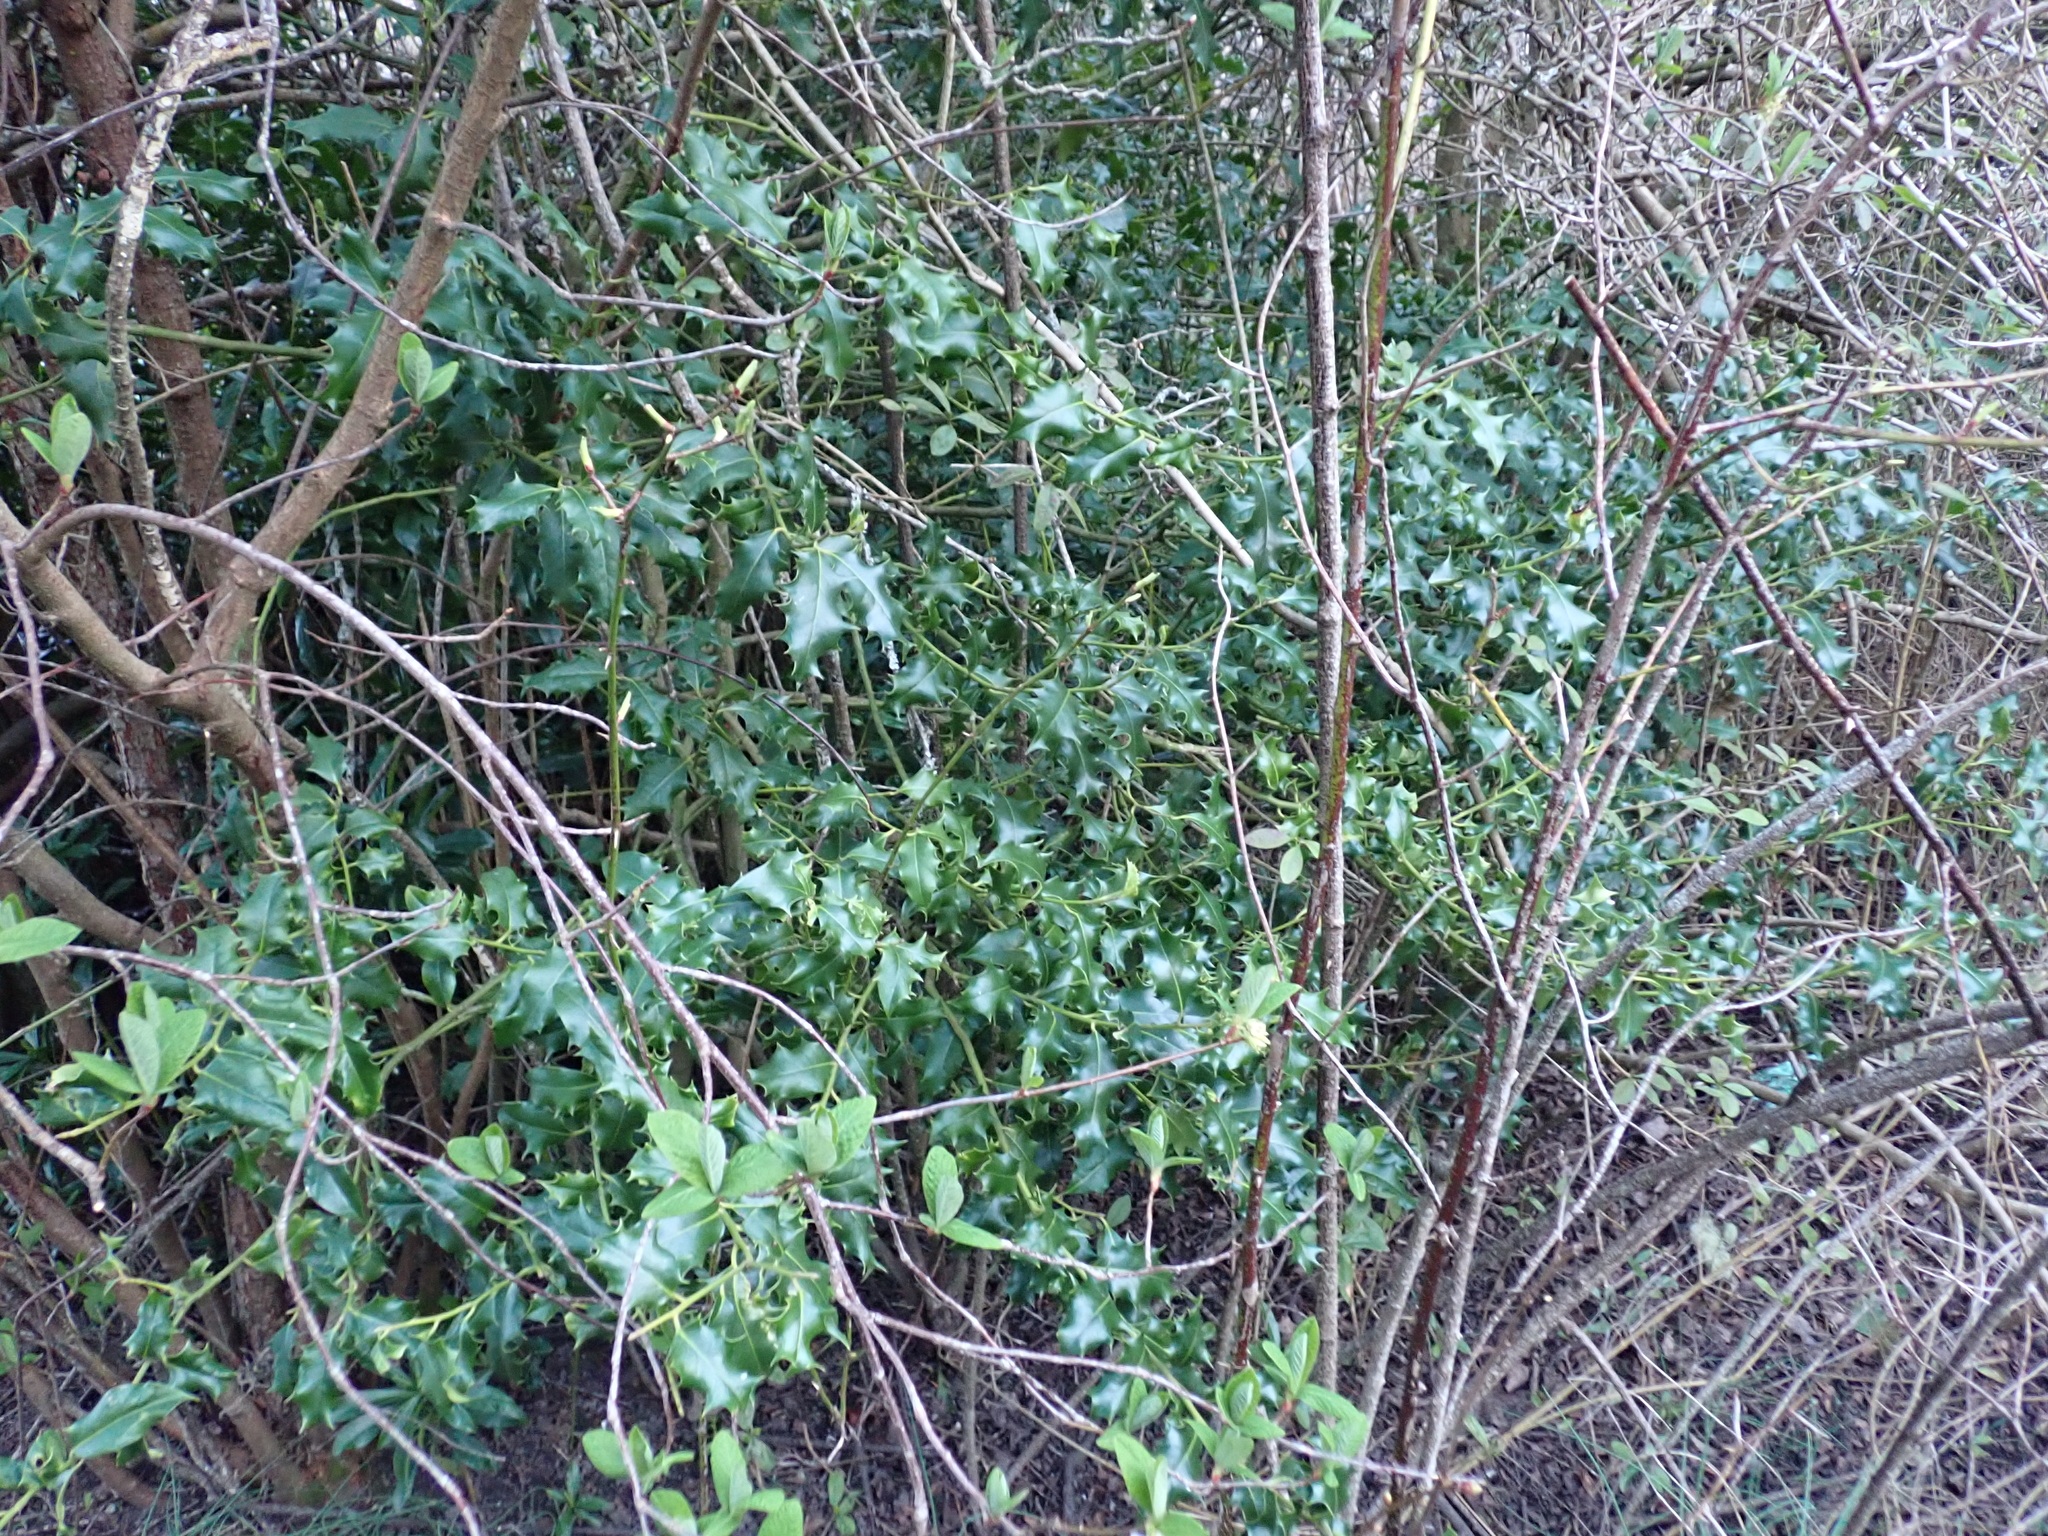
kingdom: Plantae
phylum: Tracheophyta
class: Magnoliopsida
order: Aquifoliales
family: Aquifoliaceae
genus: Ilex
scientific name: Ilex aquifolium
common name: English holly
